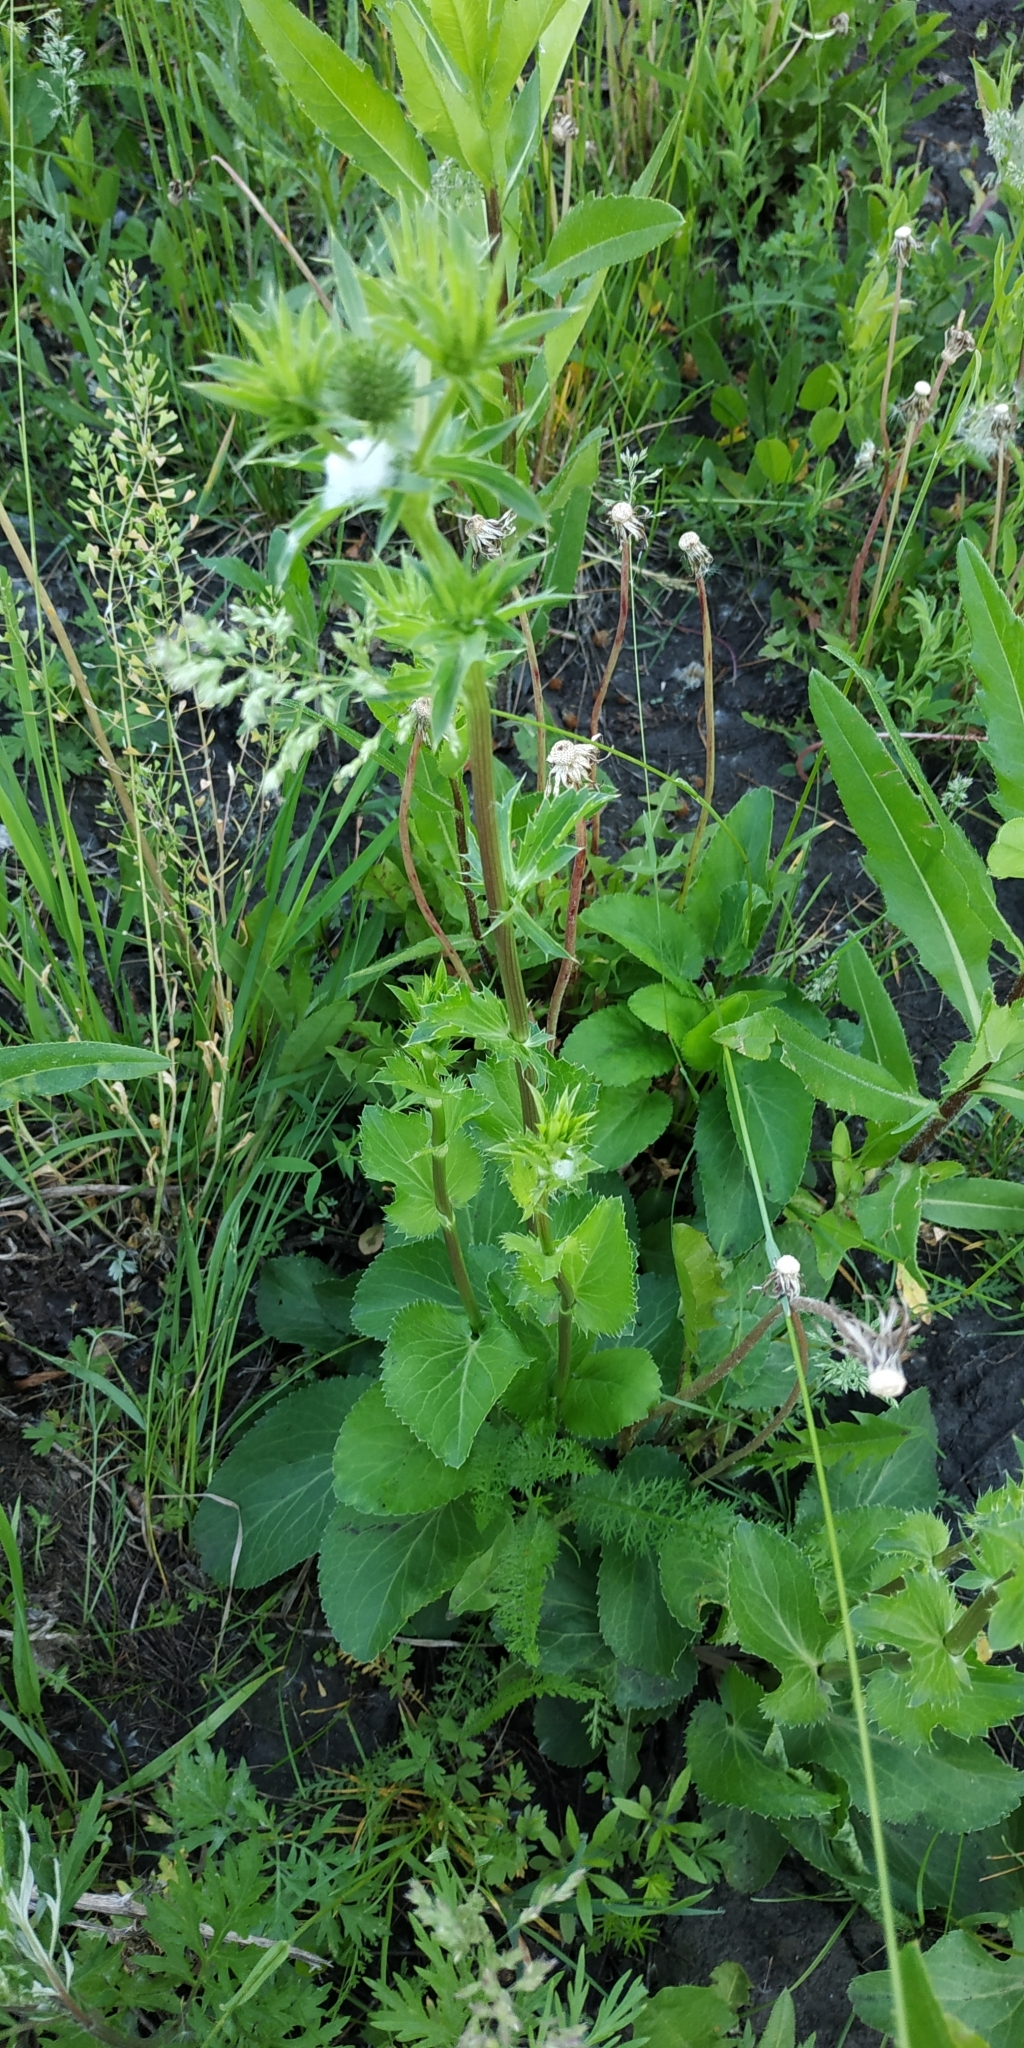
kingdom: Plantae
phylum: Tracheophyta
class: Magnoliopsida
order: Apiales
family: Apiaceae
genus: Eryngium
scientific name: Eryngium planum
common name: Blue eryngo
